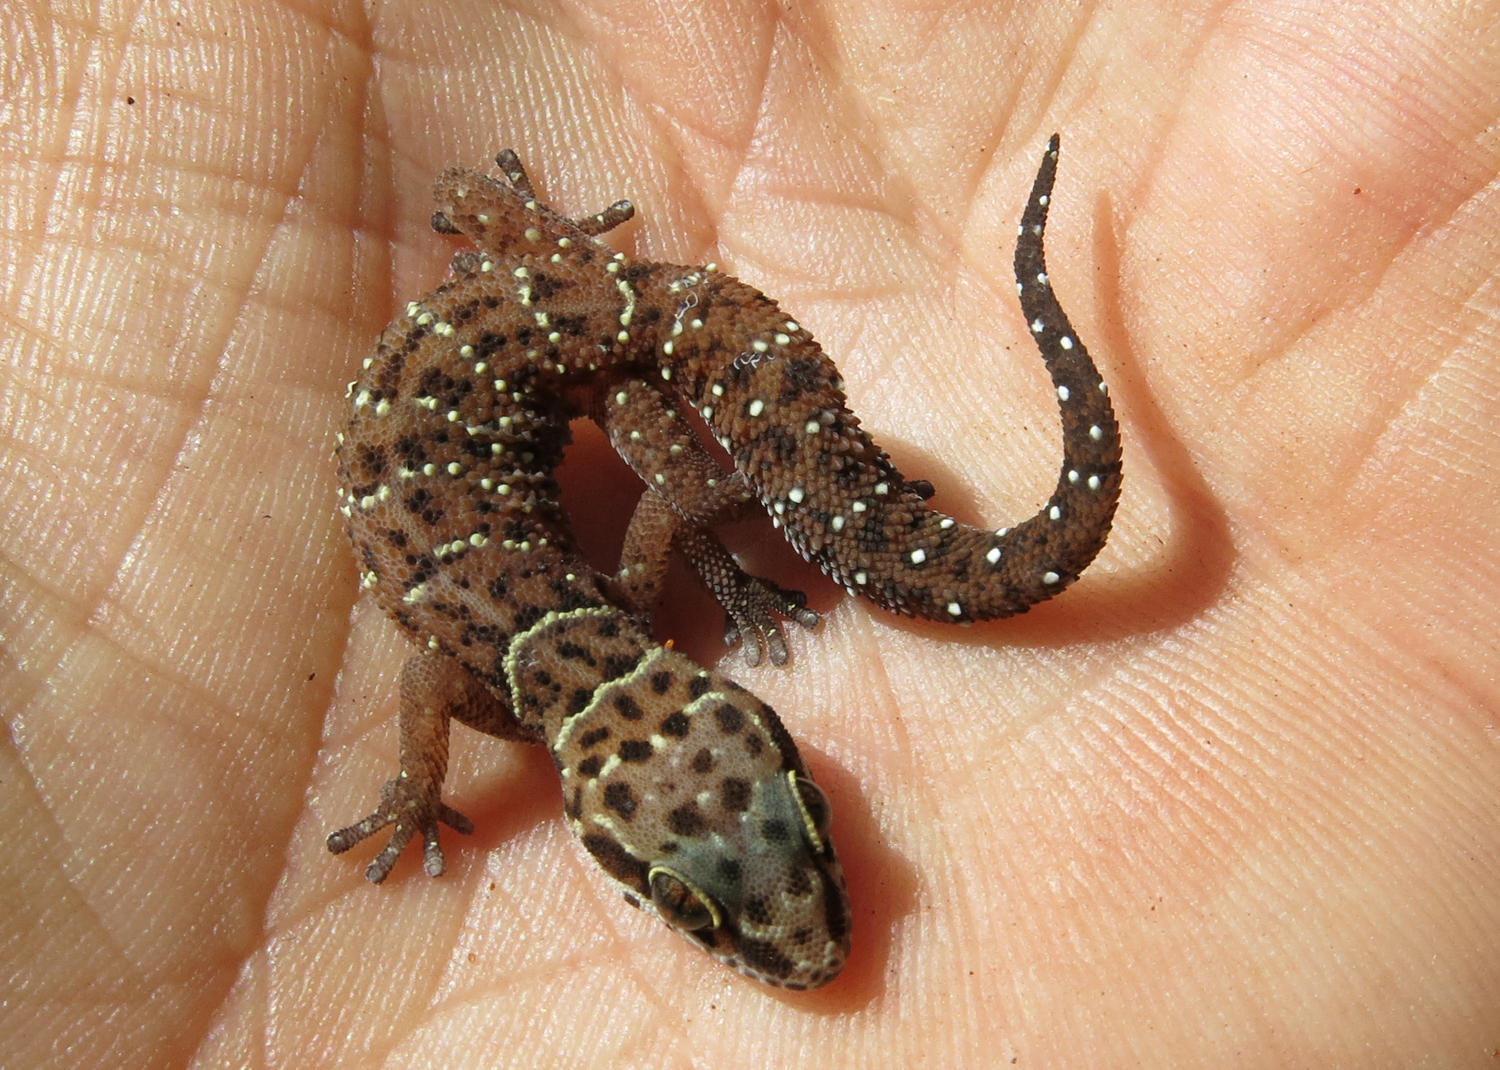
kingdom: Animalia
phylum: Chordata
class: Squamata
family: Gekkonidae
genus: Pachydactylus
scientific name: Pachydactylus affinis
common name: Transvaal gecko
